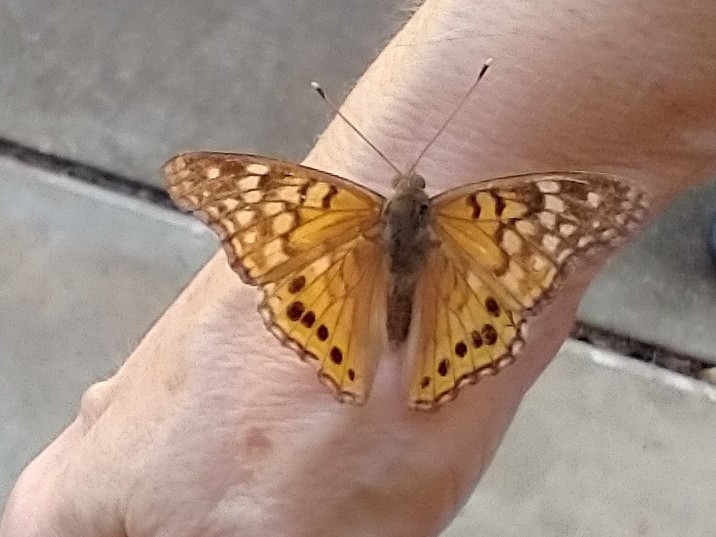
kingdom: Animalia
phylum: Arthropoda
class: Insecta
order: Lepidoptera
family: Nymphalidae
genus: Asterocampa
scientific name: Asterocampa celtis
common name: Hackberry emperor
